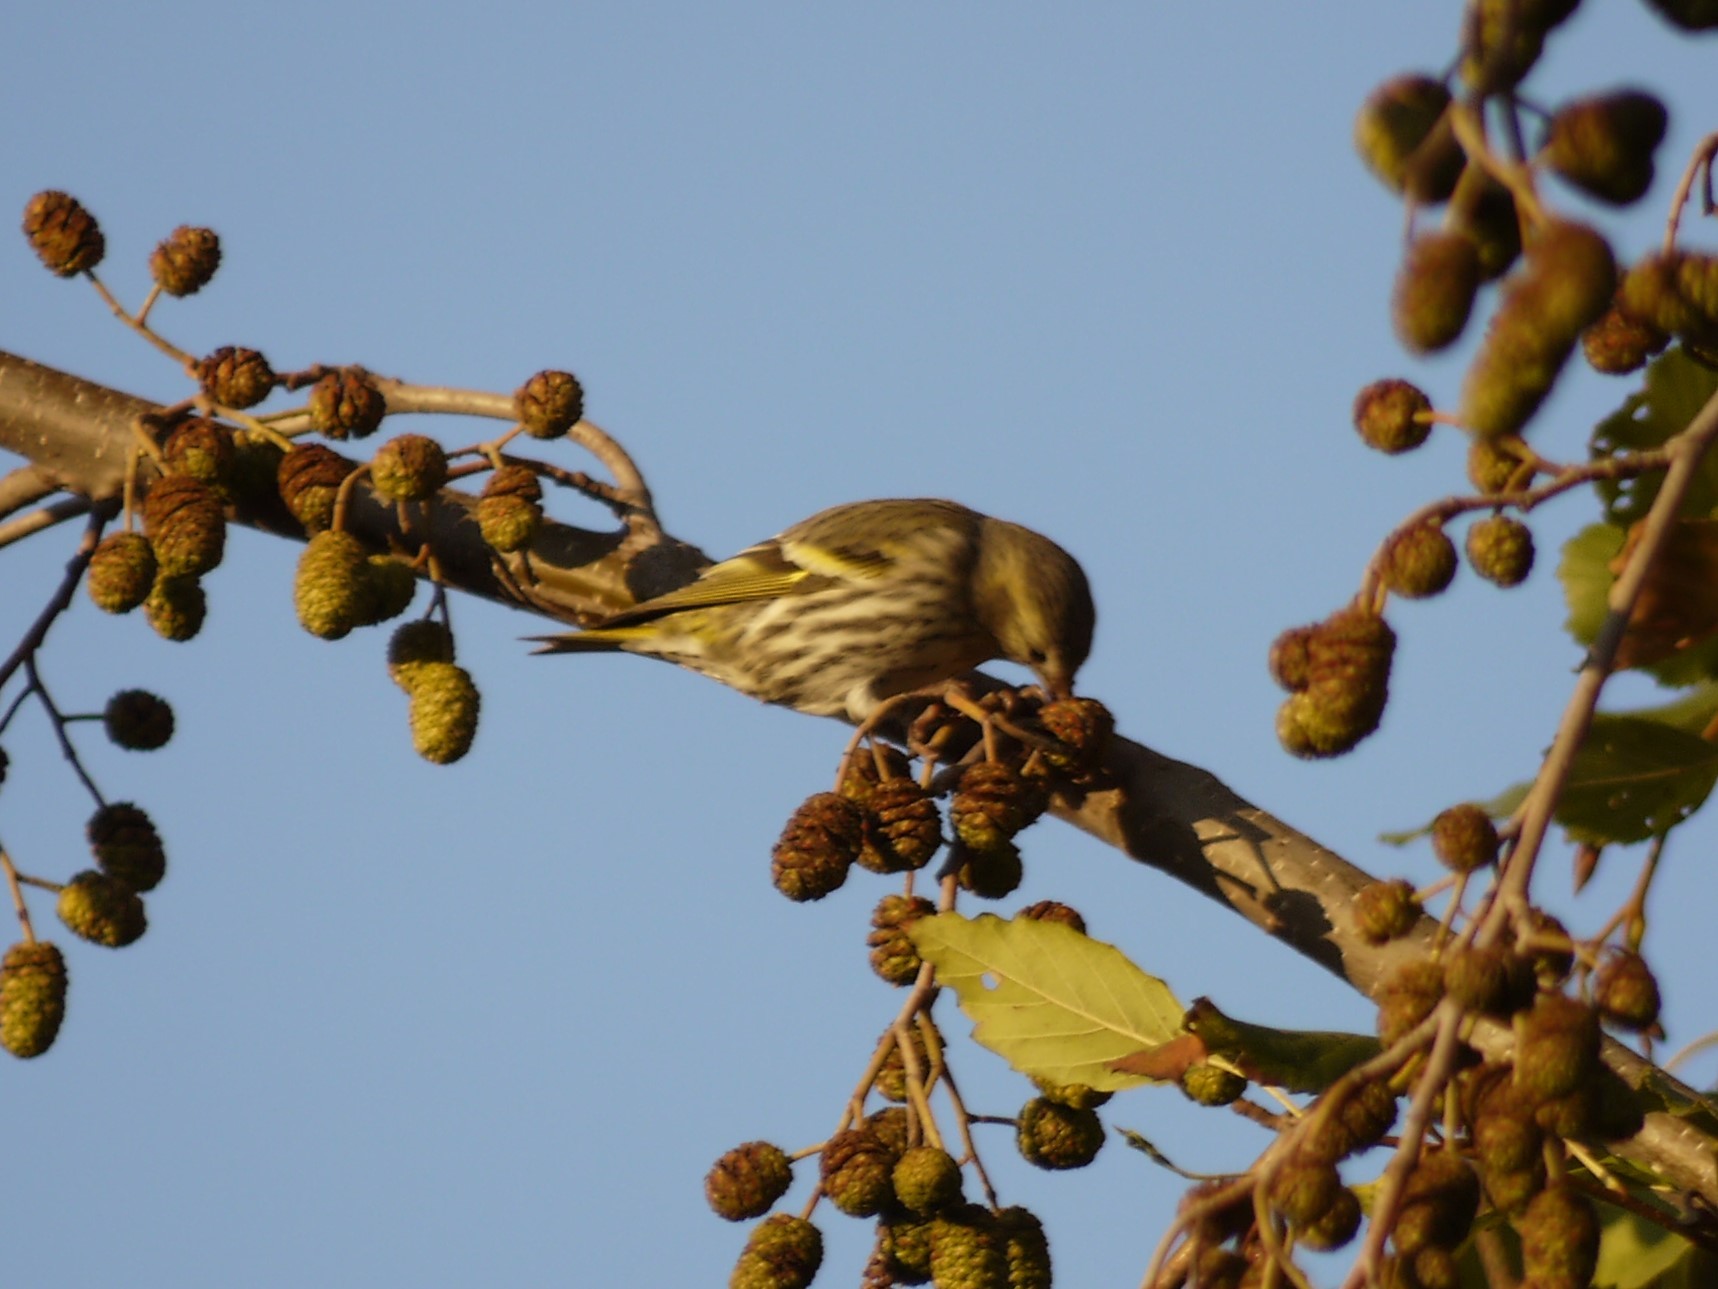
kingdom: Animalia
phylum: Chordata
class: Aves
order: Passeriformes
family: Fringillidae
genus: Spinus
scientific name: Spinus spinus
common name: Eurasian siskin
